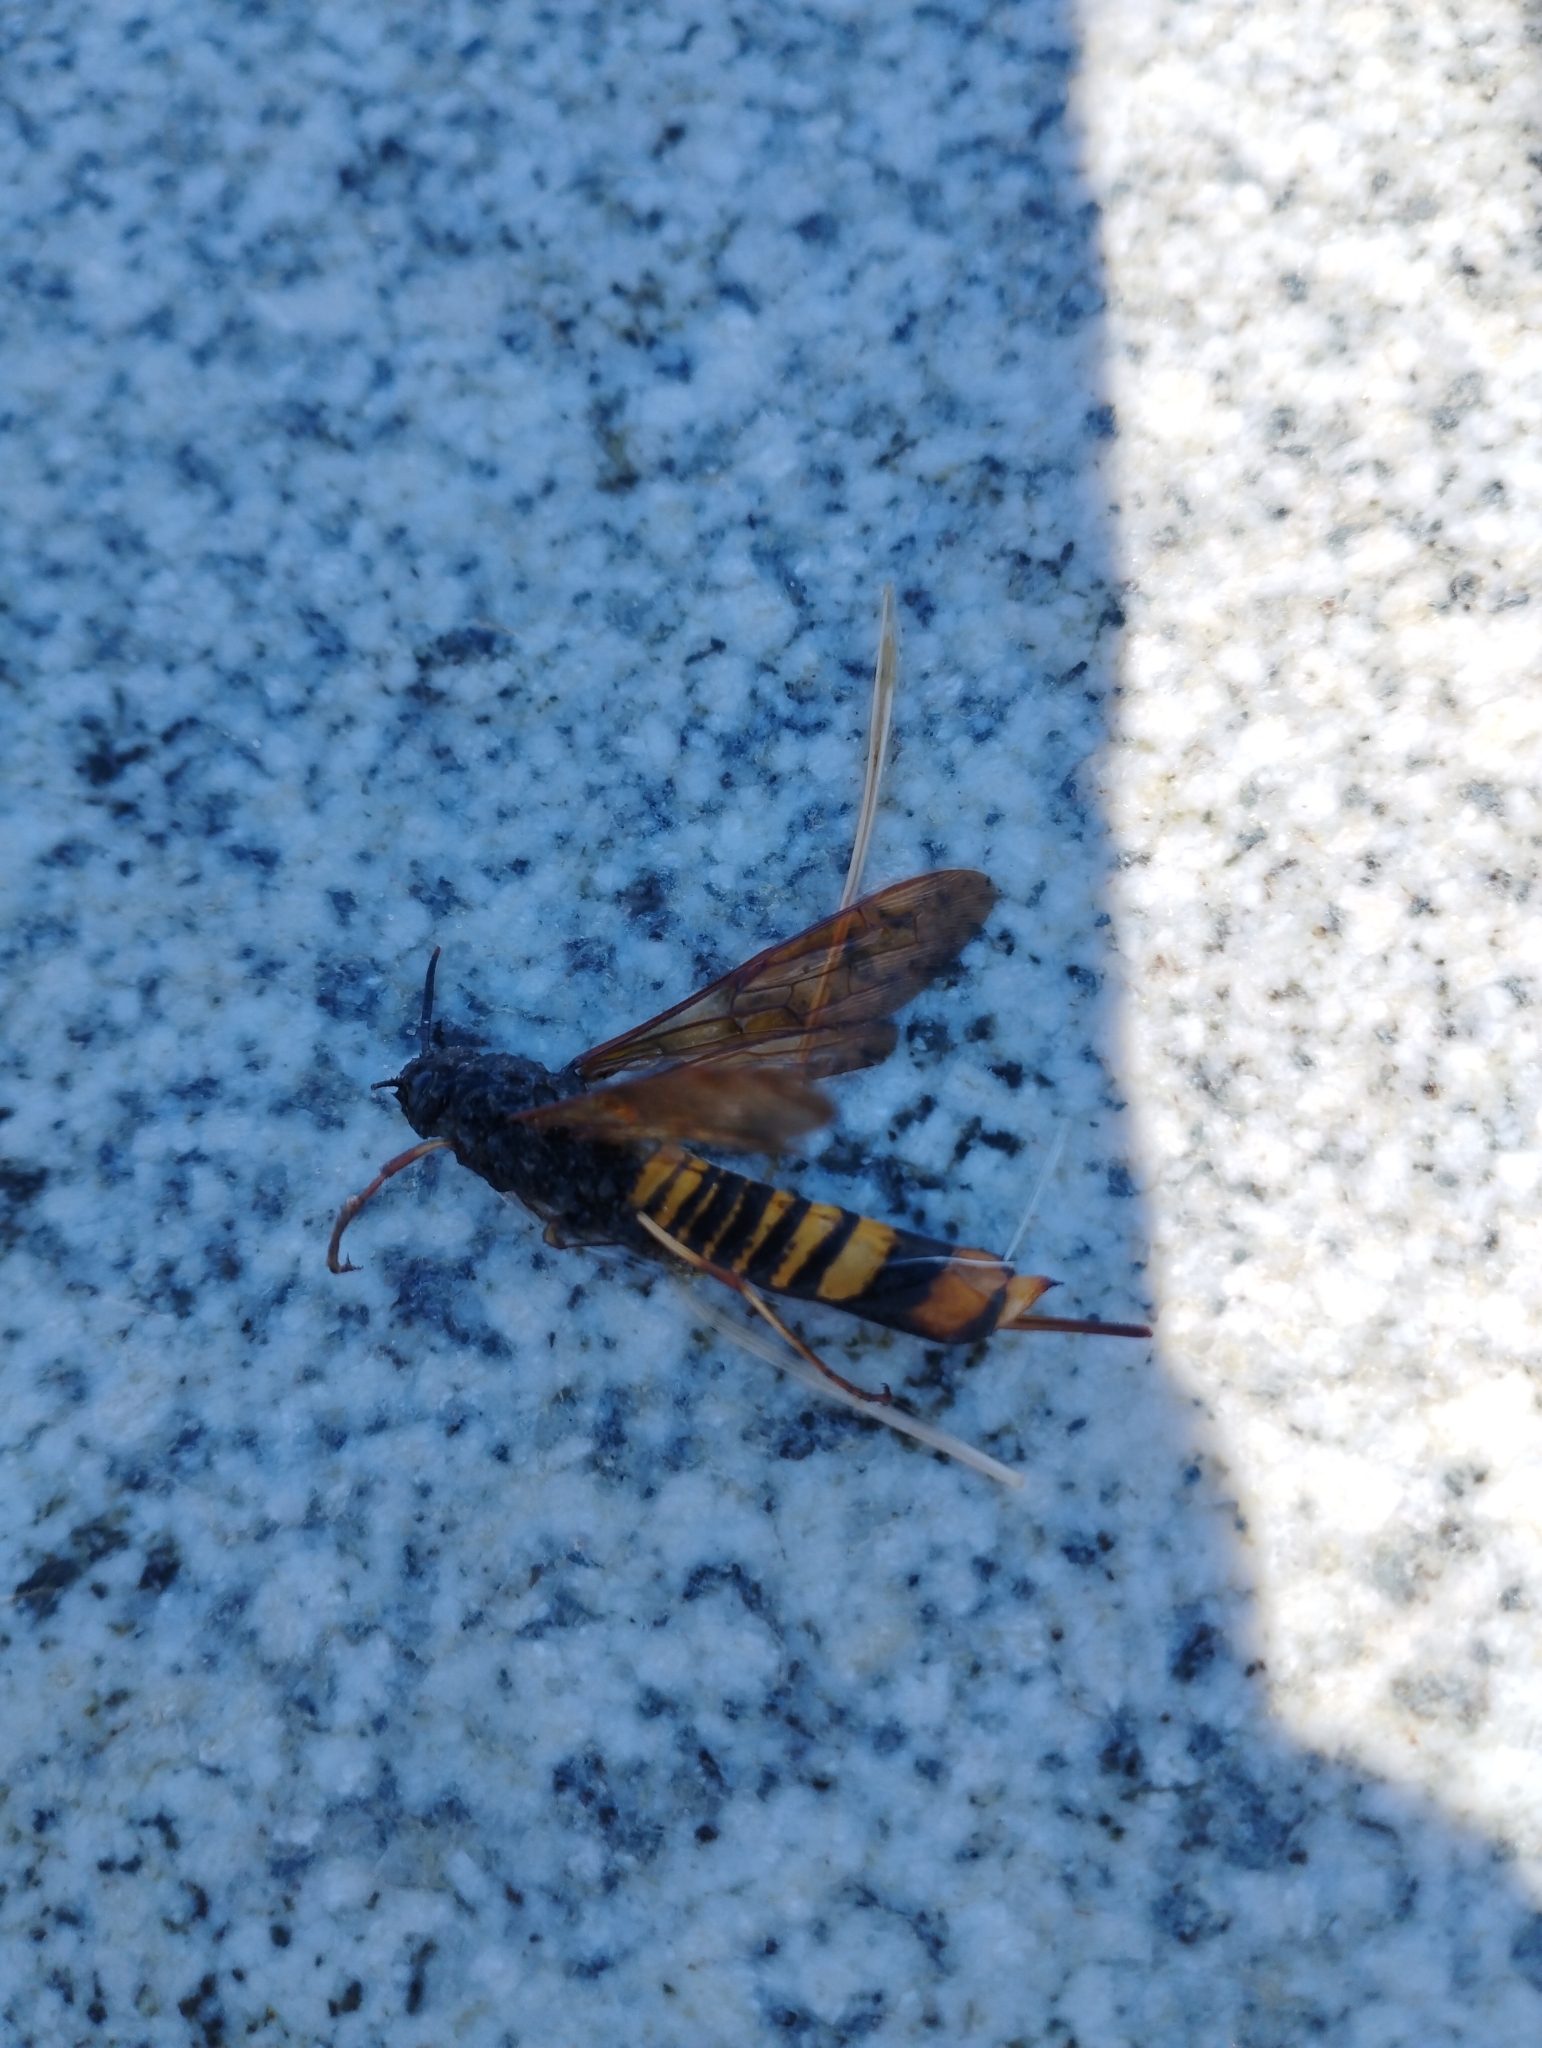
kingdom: Animalia
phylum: Arthropoda
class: Insecta
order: Hymenoptera
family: Siricidae
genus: Tremex
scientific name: Tremex fuscicornis
